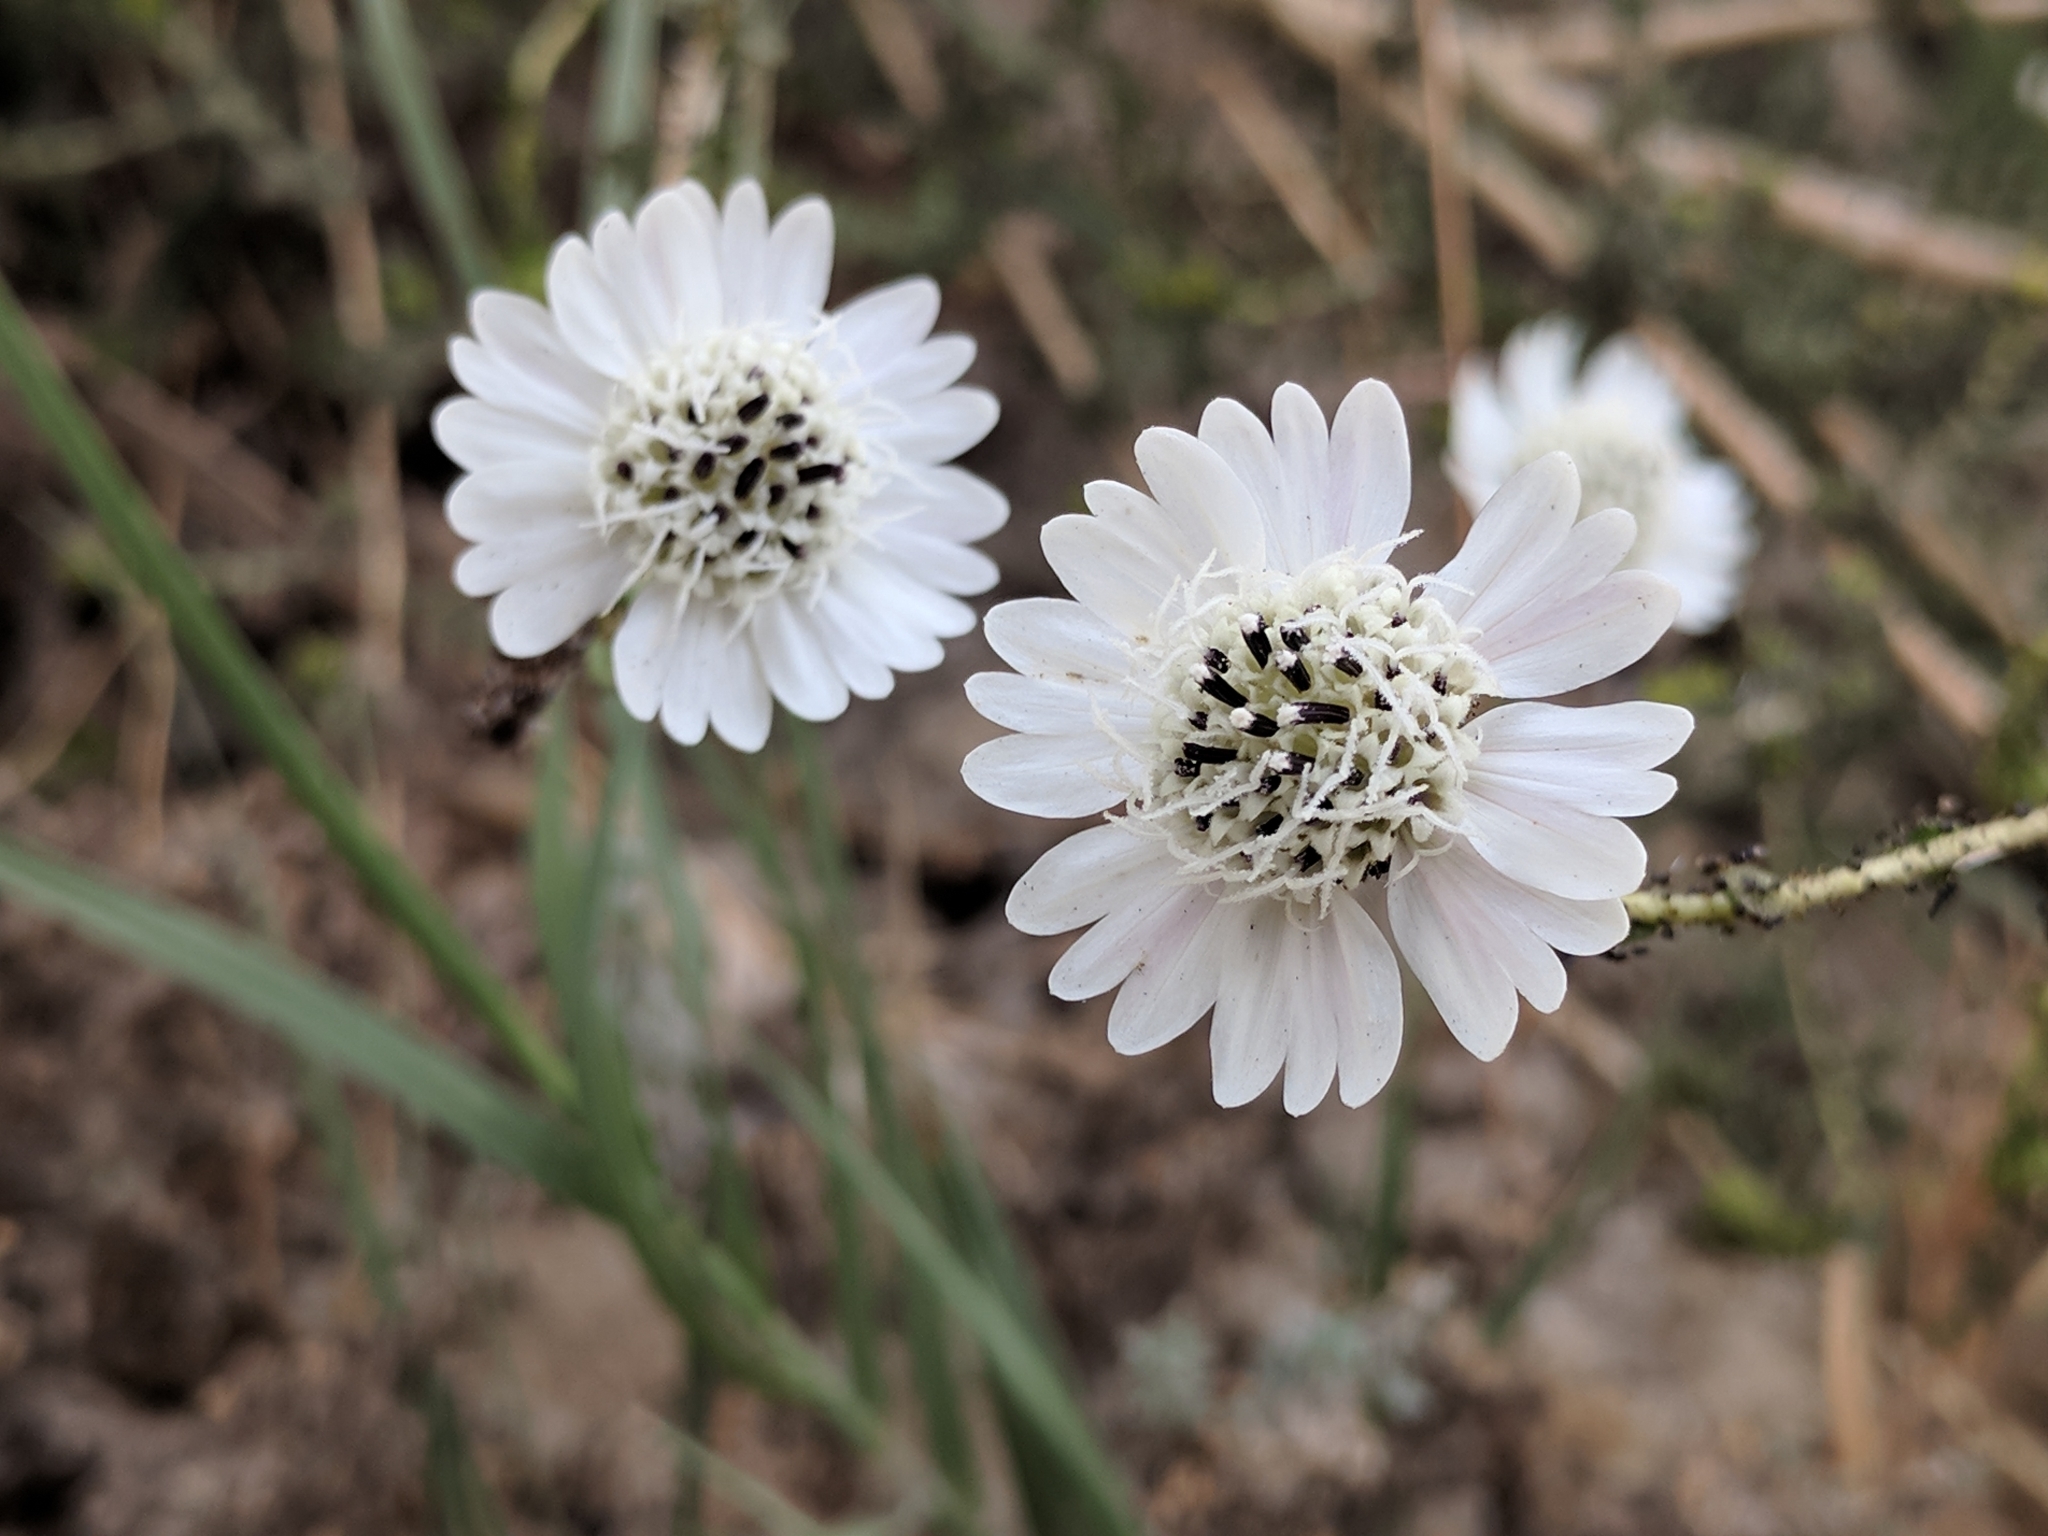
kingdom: Plantae
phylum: Tracheophyta
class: Magnoliopsida
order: Asterales
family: Asteraceae
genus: Blepharizonia
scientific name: Blepharizonia laxa
